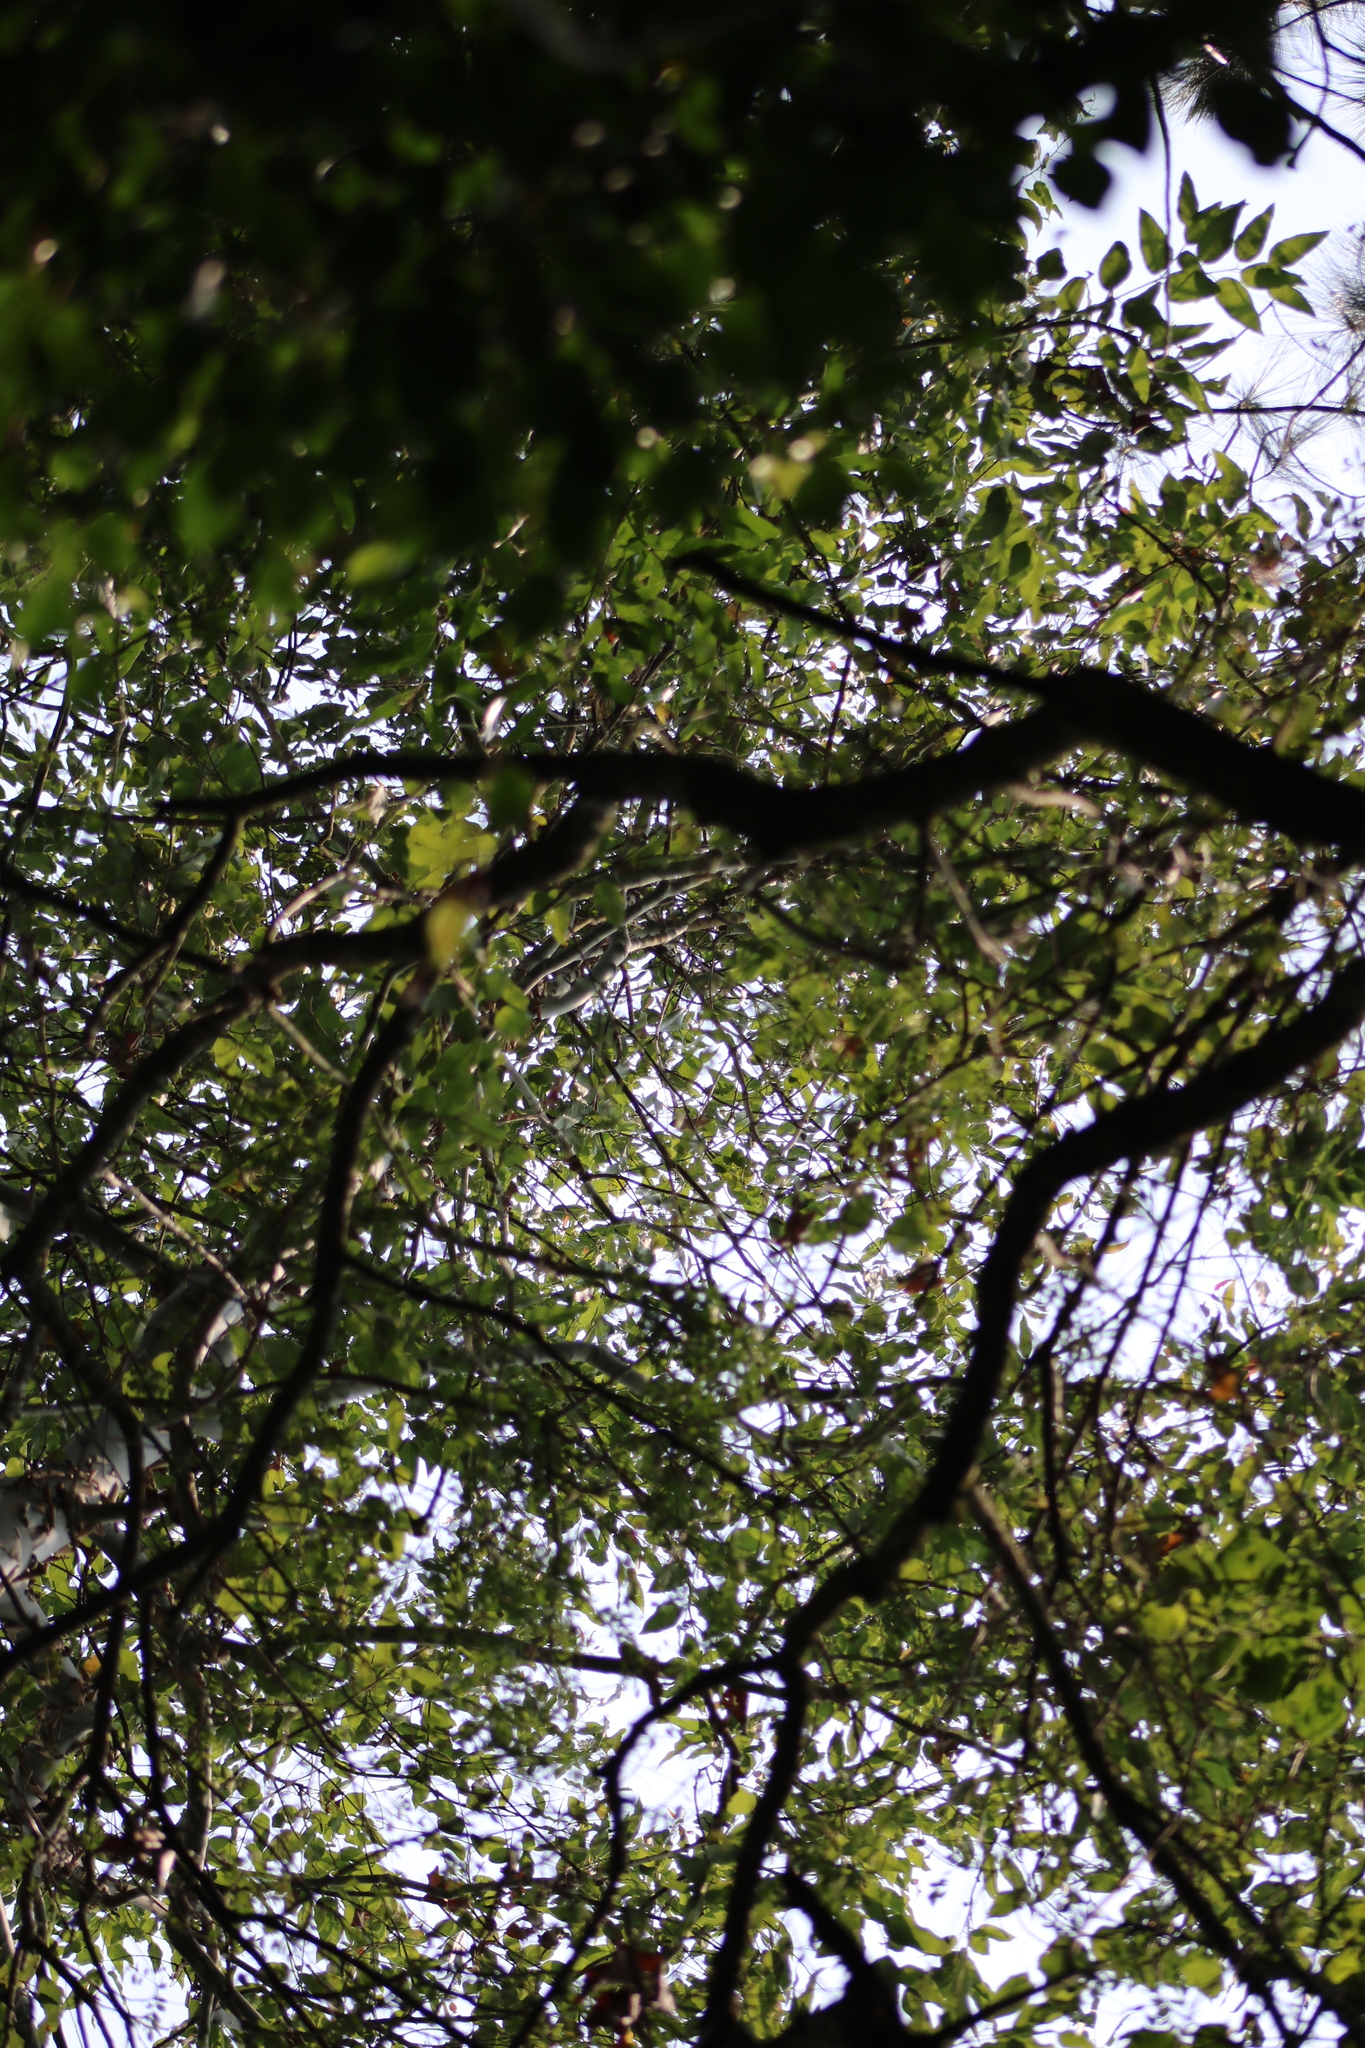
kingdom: Plantae
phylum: Tracheophyta
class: Magnoliopsida
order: Myrtales
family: Myrtaceae
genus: Corymbia
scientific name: Corymbia torelliana
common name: Cadaghi
